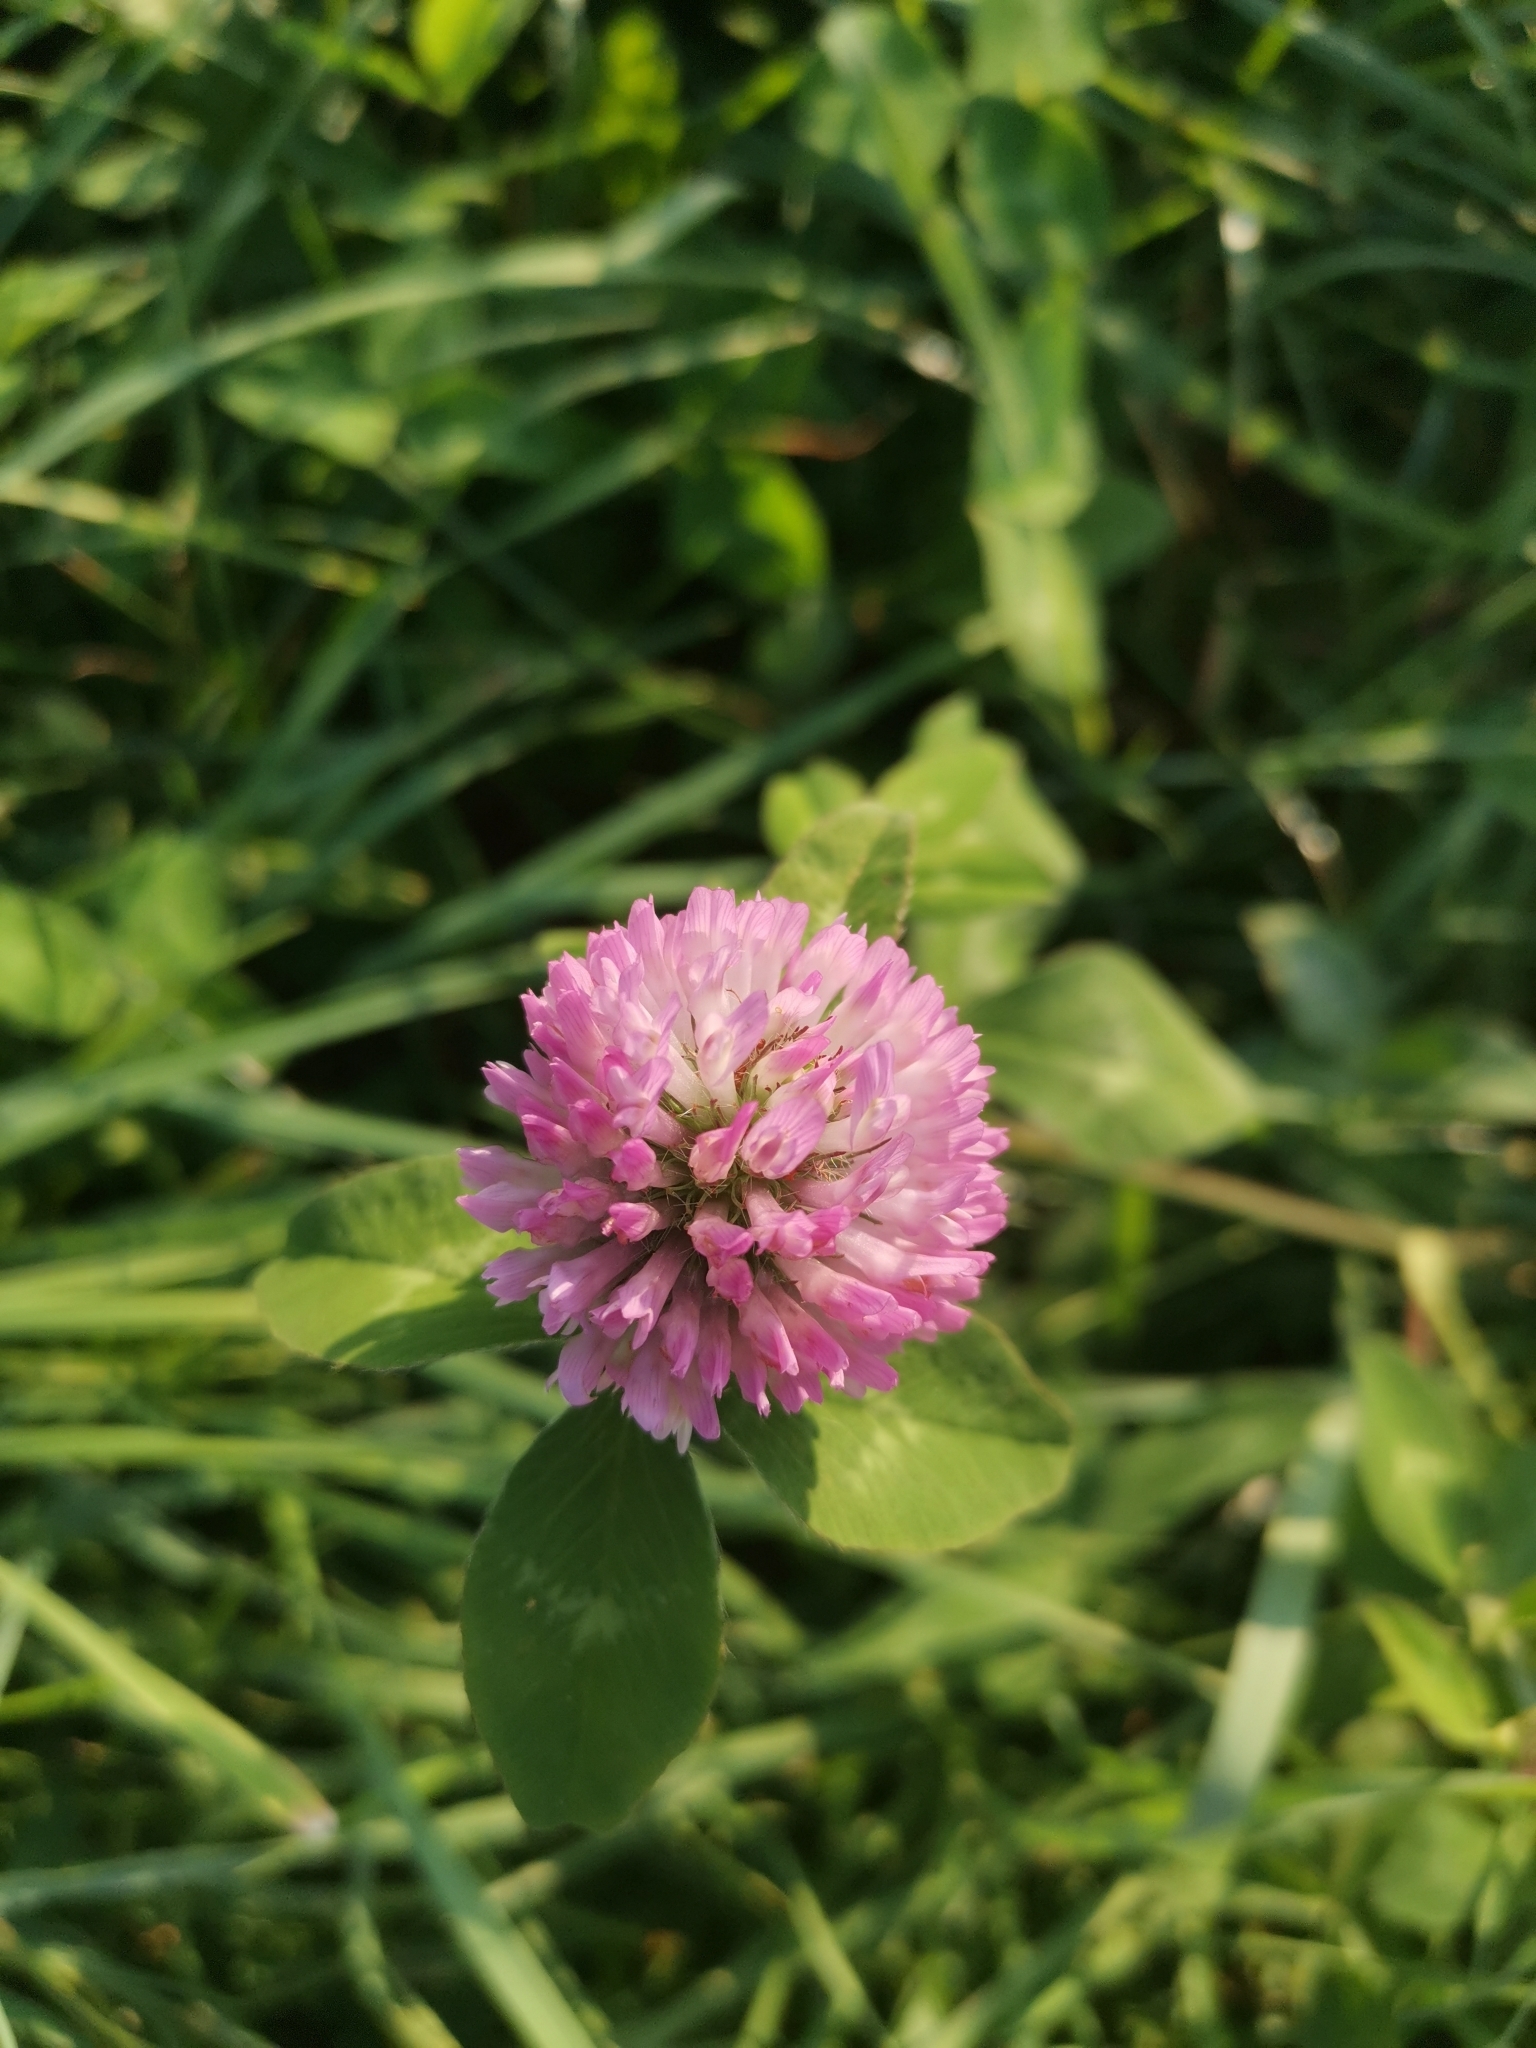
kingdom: Plantae
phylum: Tracheophyta
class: Magnoliopsida
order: Fabales
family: Fabaceae
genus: Trifolium
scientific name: Trifolium pratense
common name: Red clover
